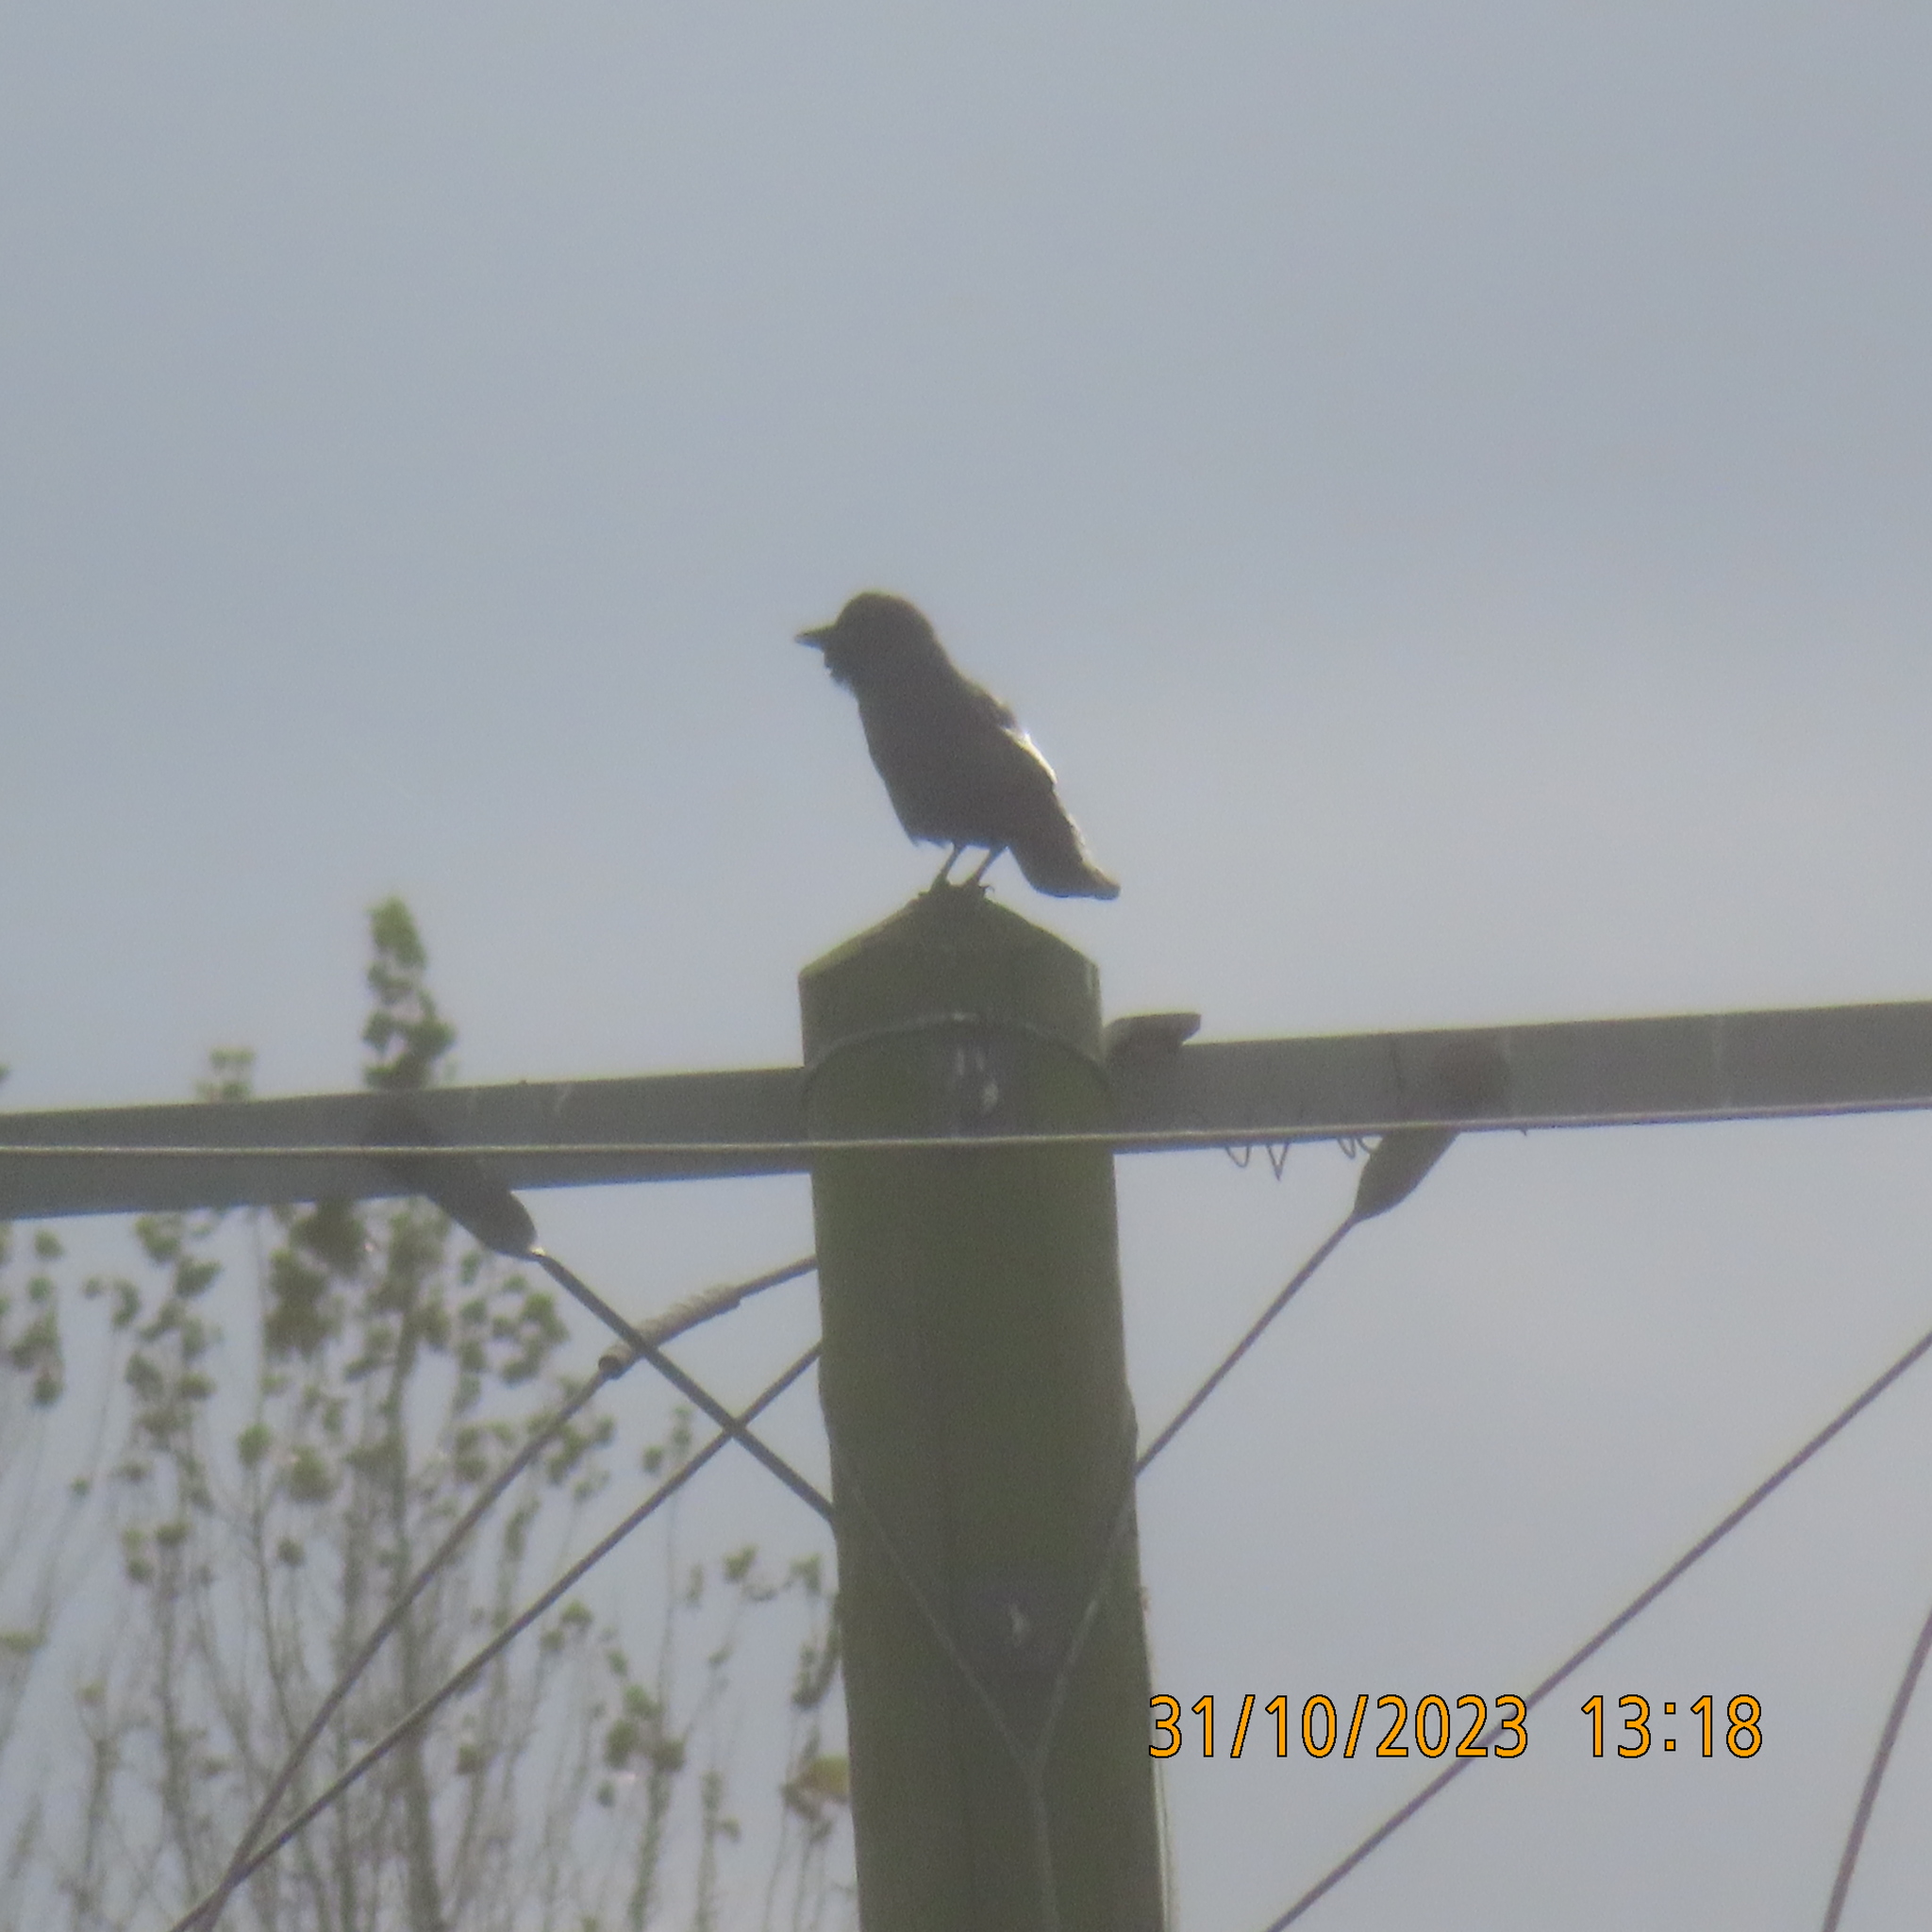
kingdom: Animalia
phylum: Chordata
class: Aves
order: Passeriformes
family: Corvidae
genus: Coloeus
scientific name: Coloeus monedula
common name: Western jackdaw
